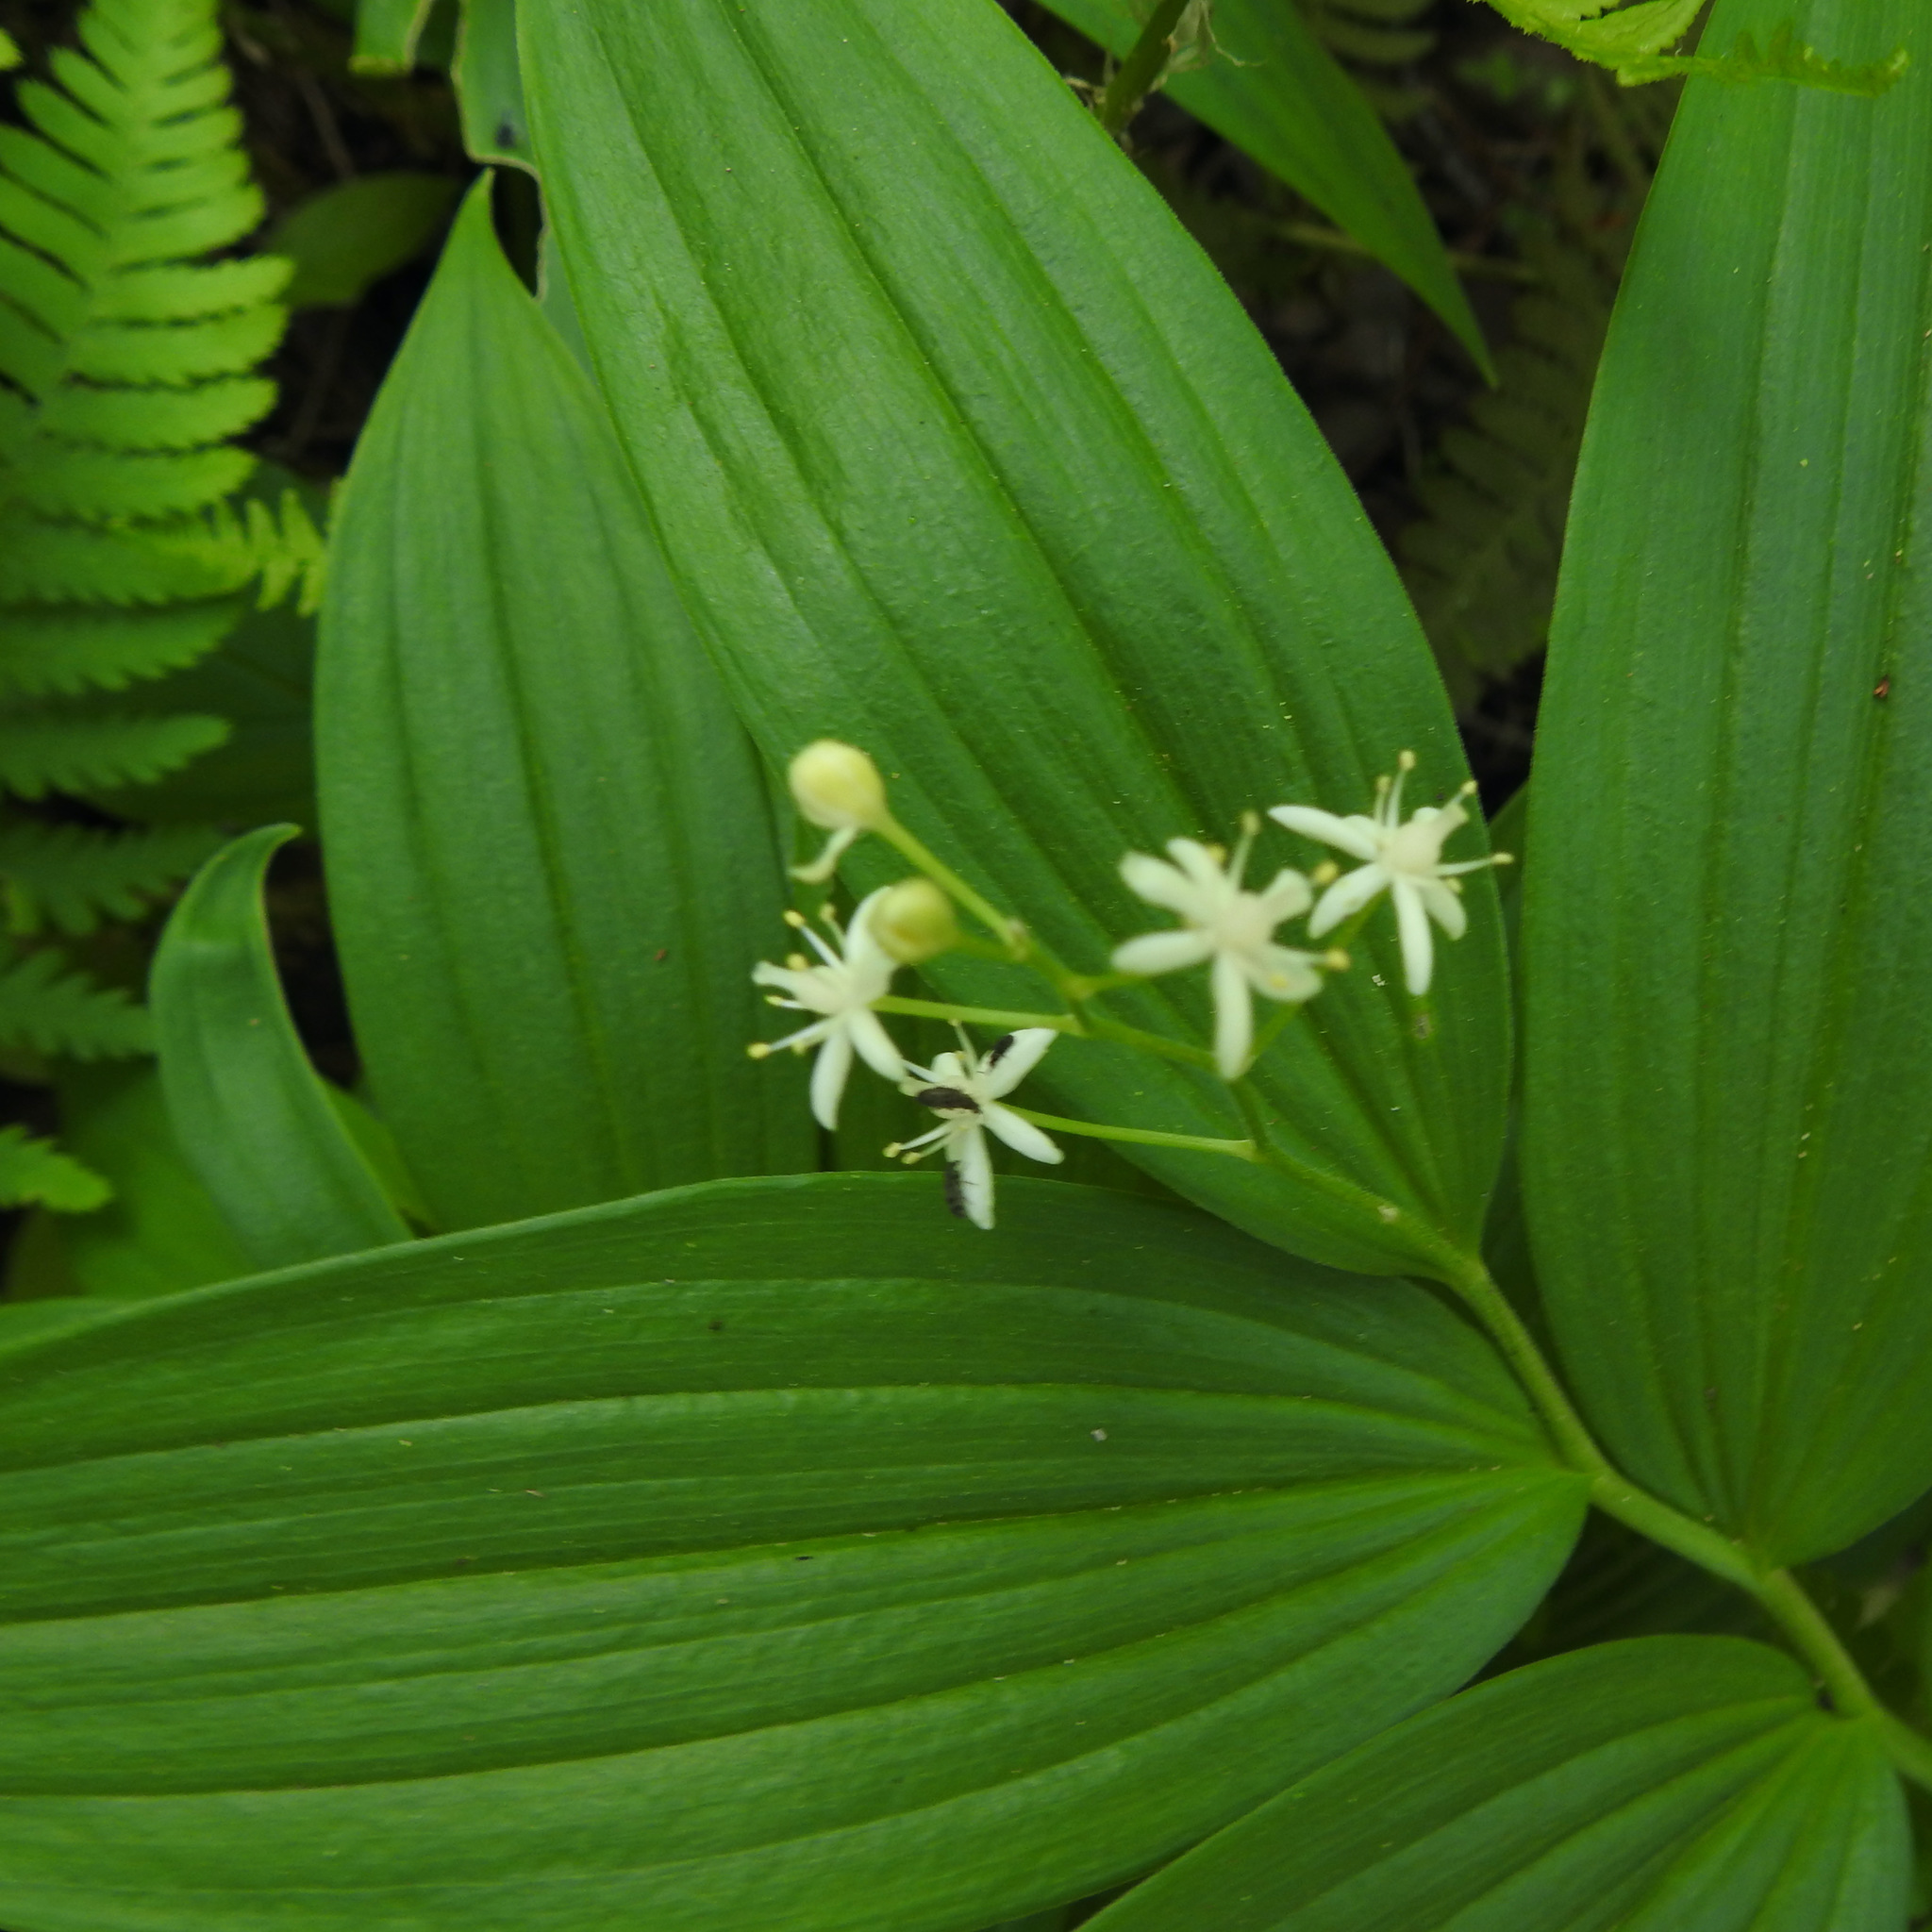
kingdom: Plantae
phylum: Tracheophyta
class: Liliopsida
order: Asparagales
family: Asparagaceae
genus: Maianthemum
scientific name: Maianthemum stellatum
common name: Little false solomon's seal
